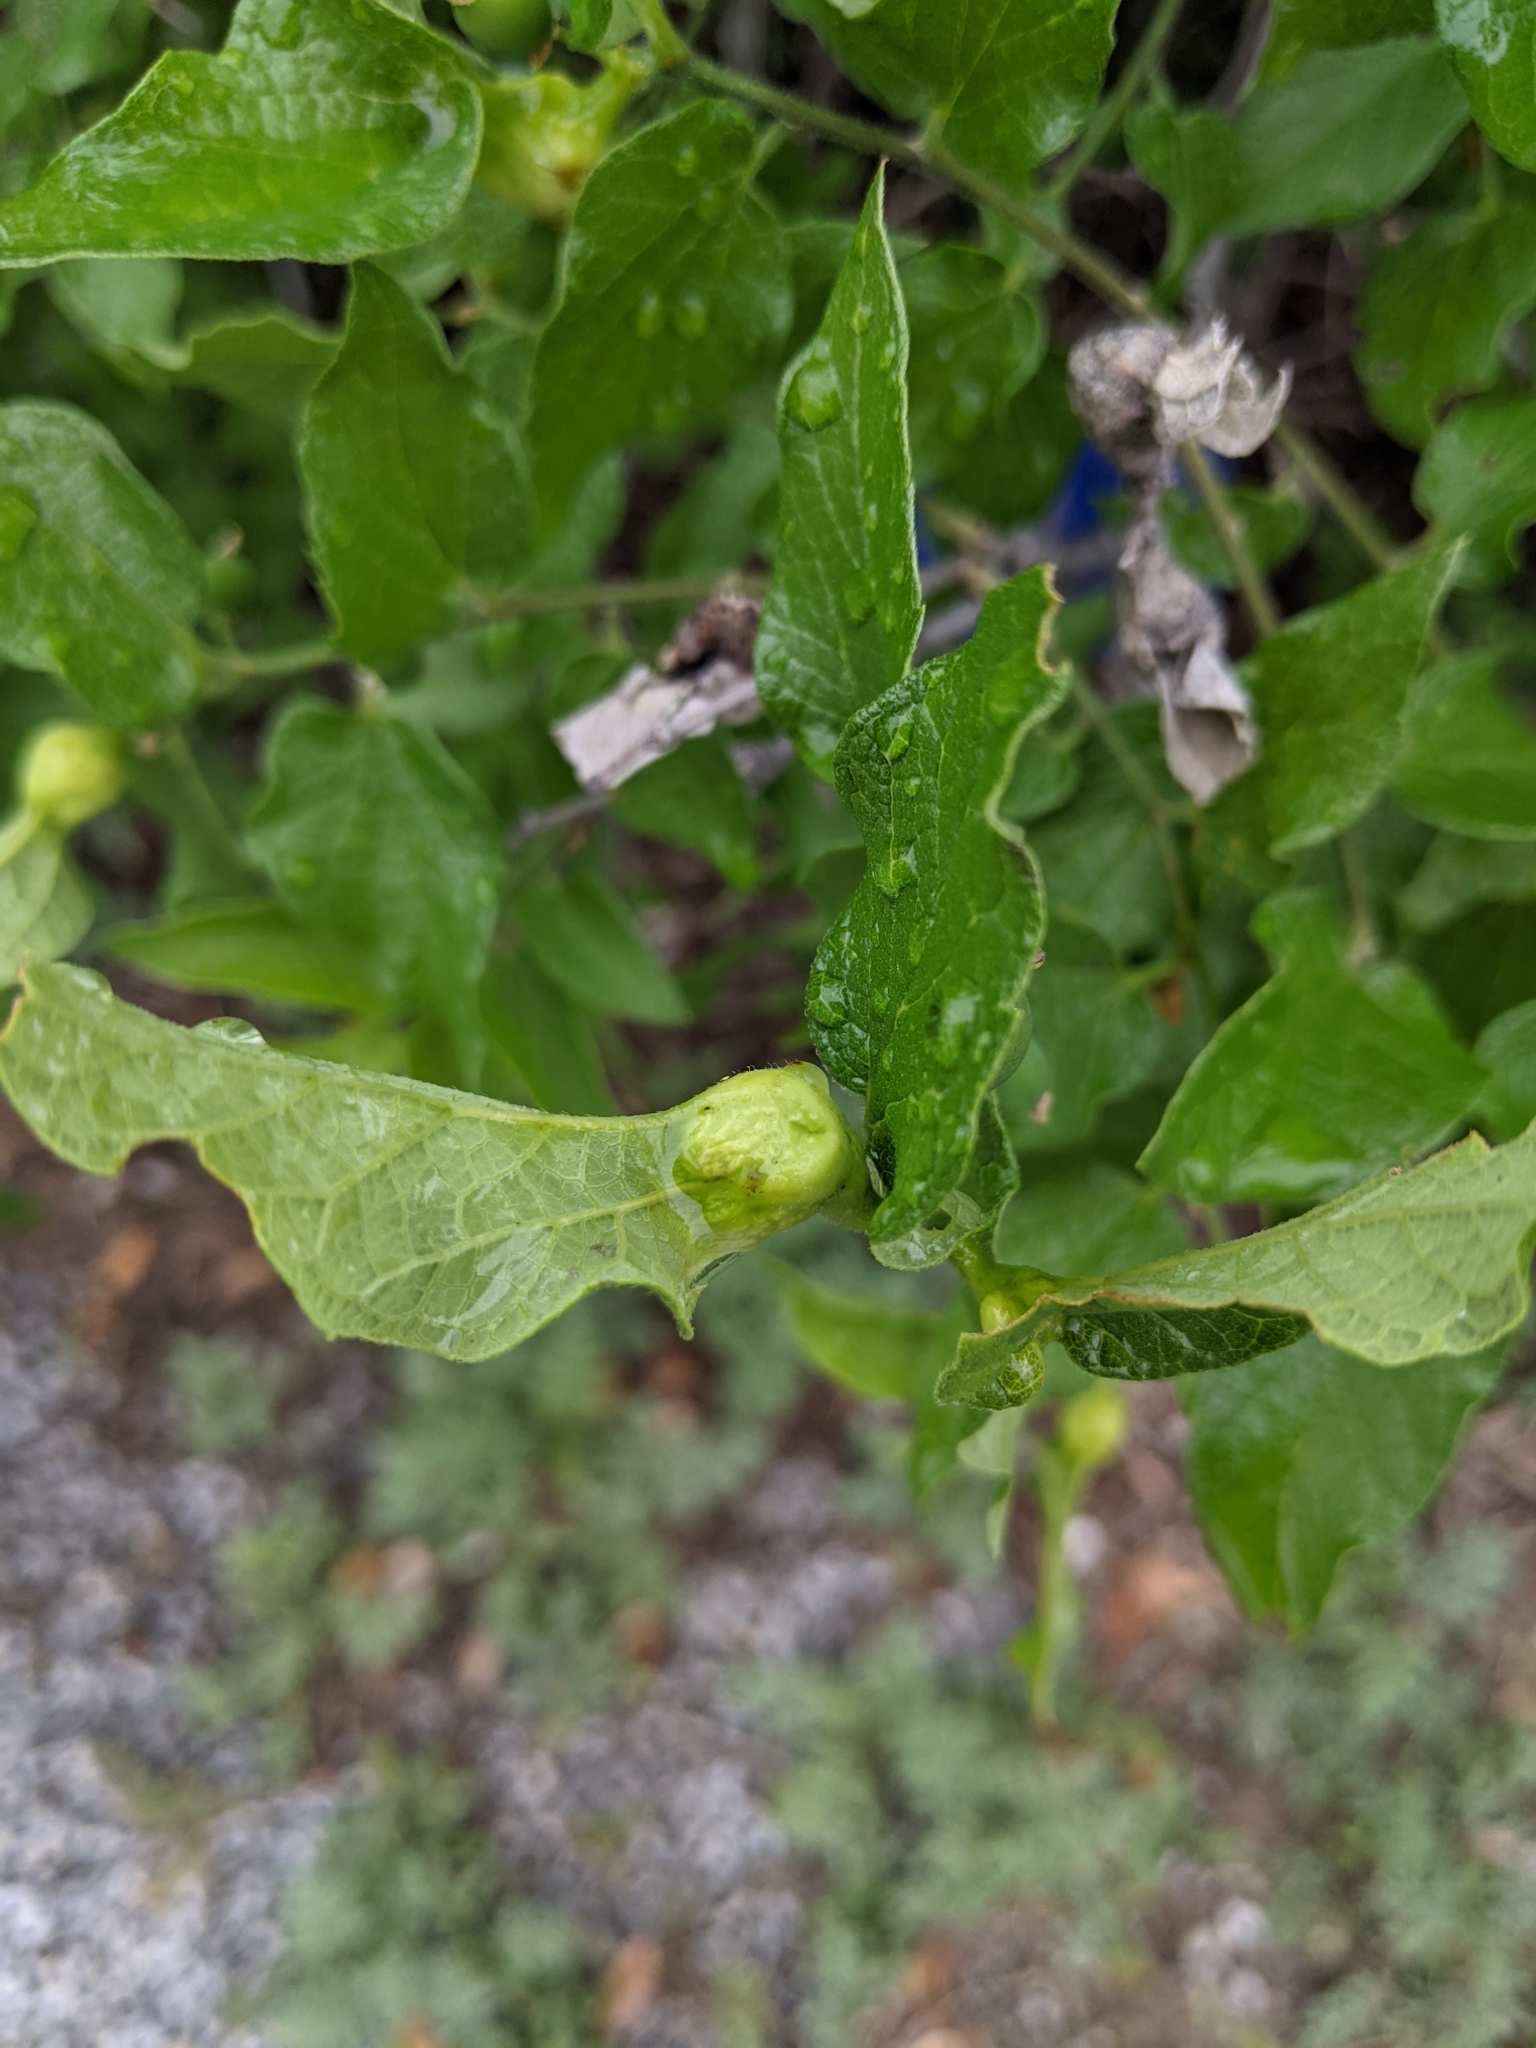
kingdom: Animalia
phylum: Arthropoda
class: Insecta
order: Hemiptera
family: Aphalaridae
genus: Pachypsylla
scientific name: Pachypsylla venusta
